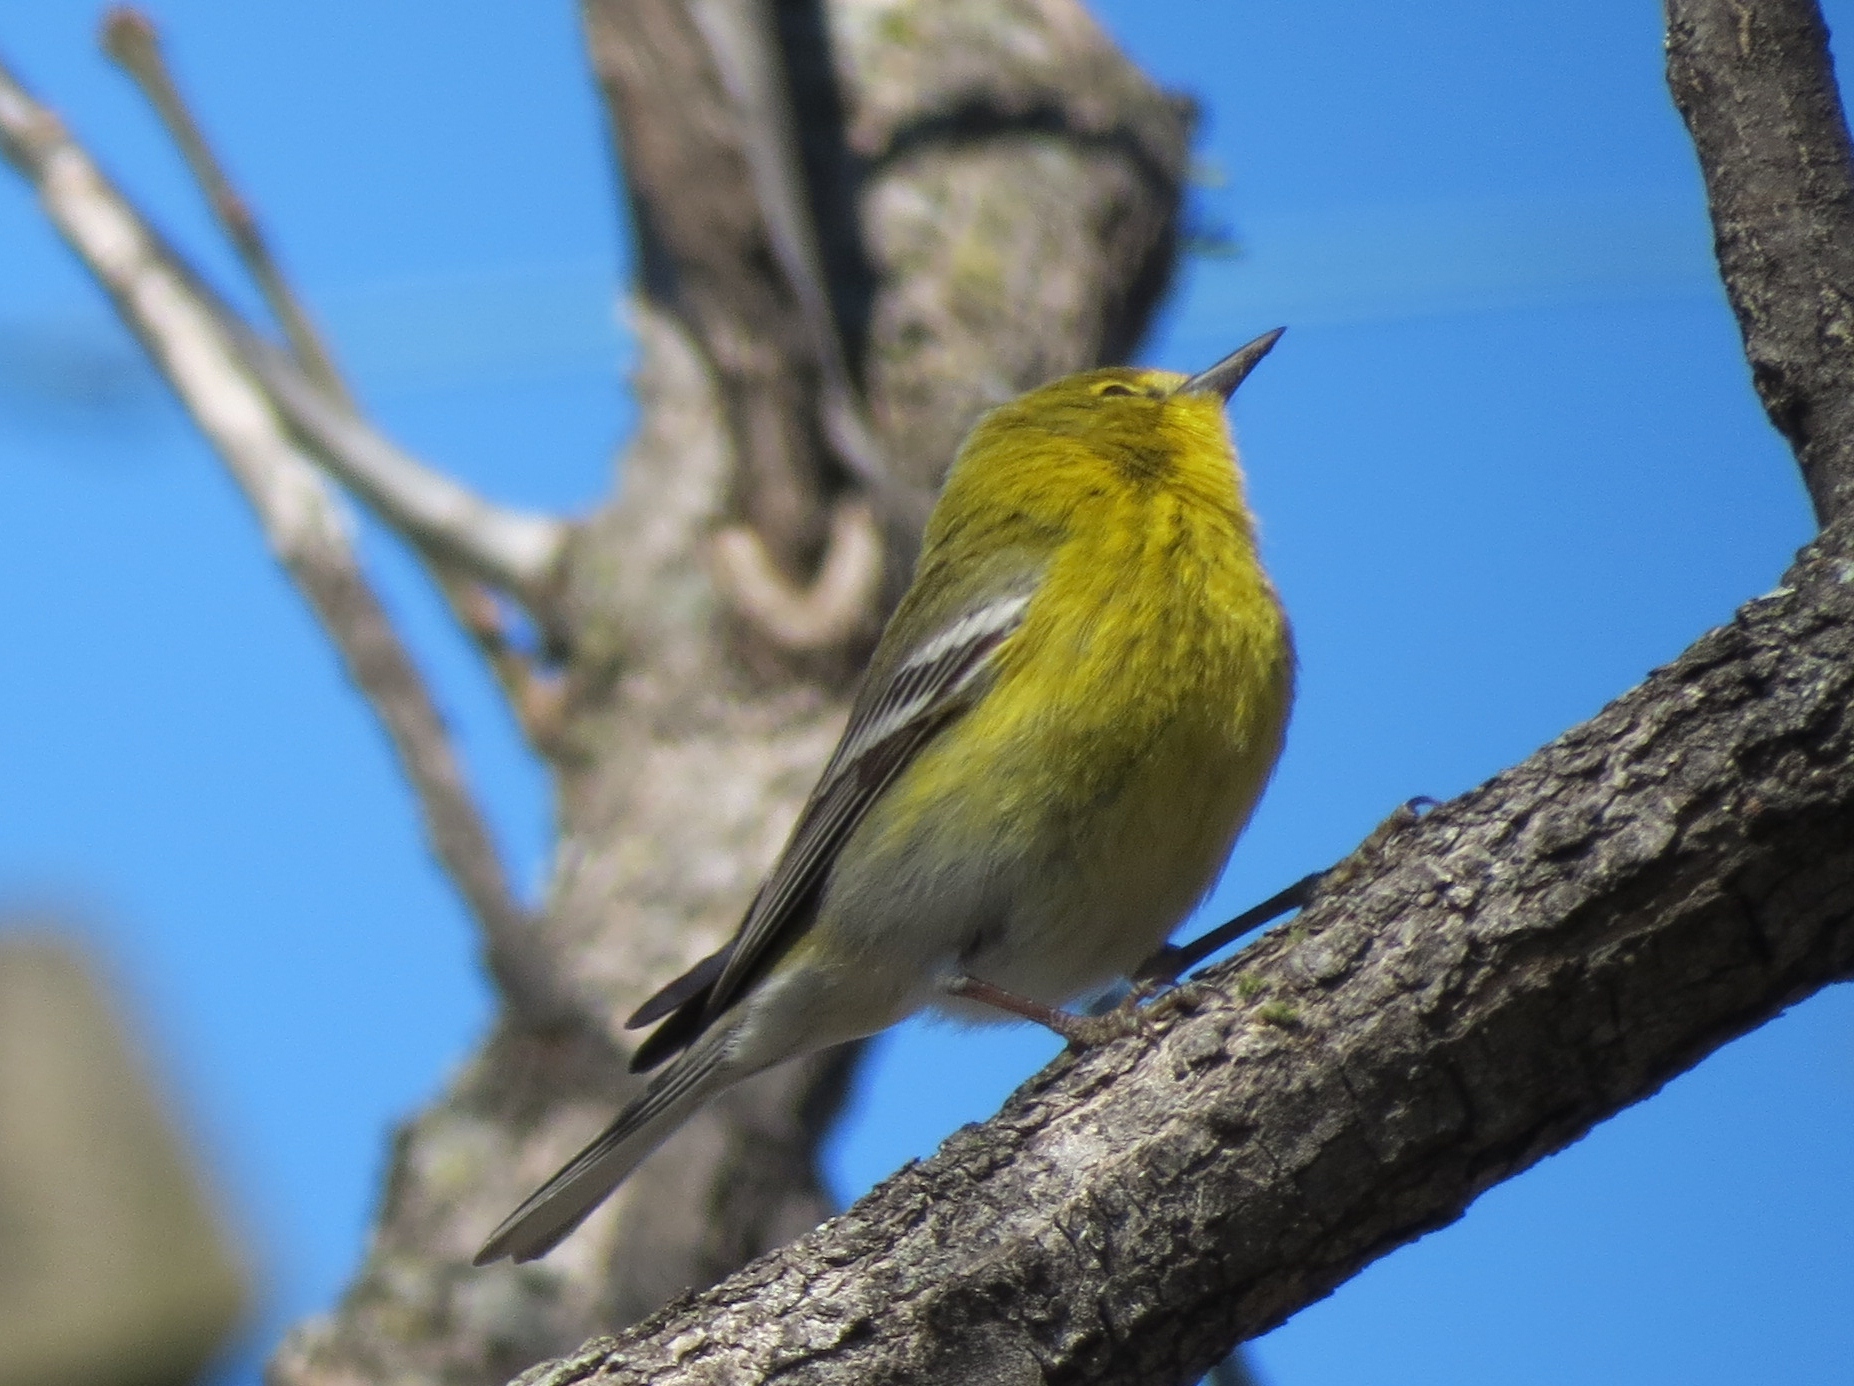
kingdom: Animalia
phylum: Chordata
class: Aves
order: Passeriformes
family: Parulidae
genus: Setophaga
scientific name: Setophaga pinus
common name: Pine warbler
